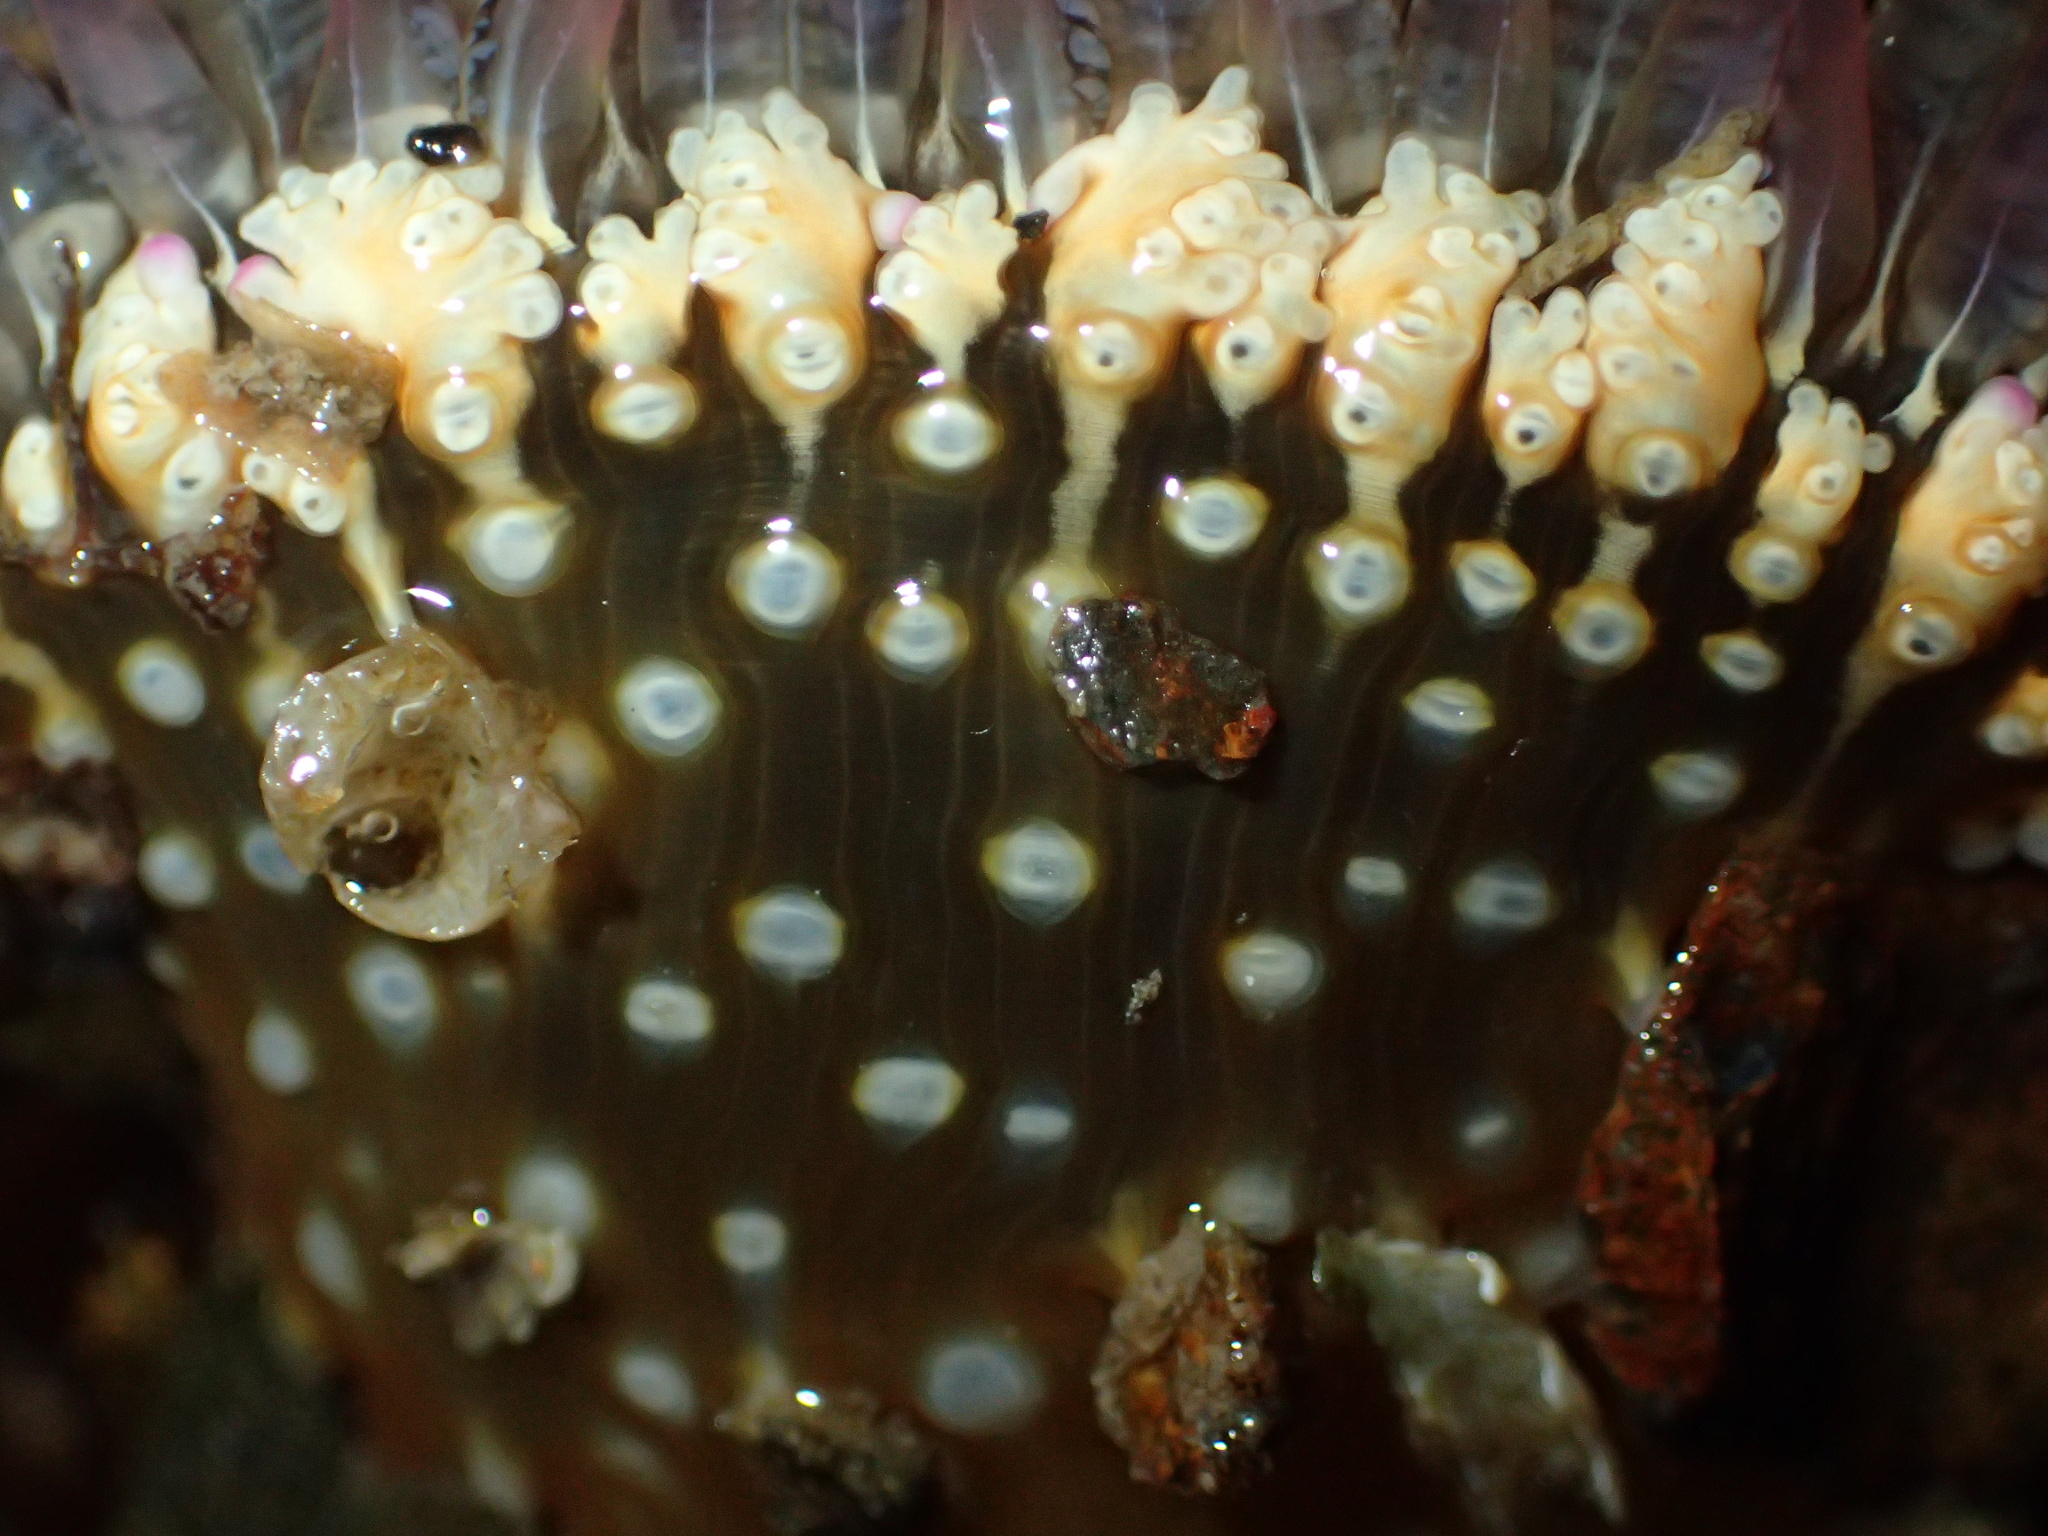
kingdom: Animalia
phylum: Cnidaria
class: Anthozoa
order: Actiniaria
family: Actiniidae
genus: Oulactis
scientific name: Oulactis muscosa
